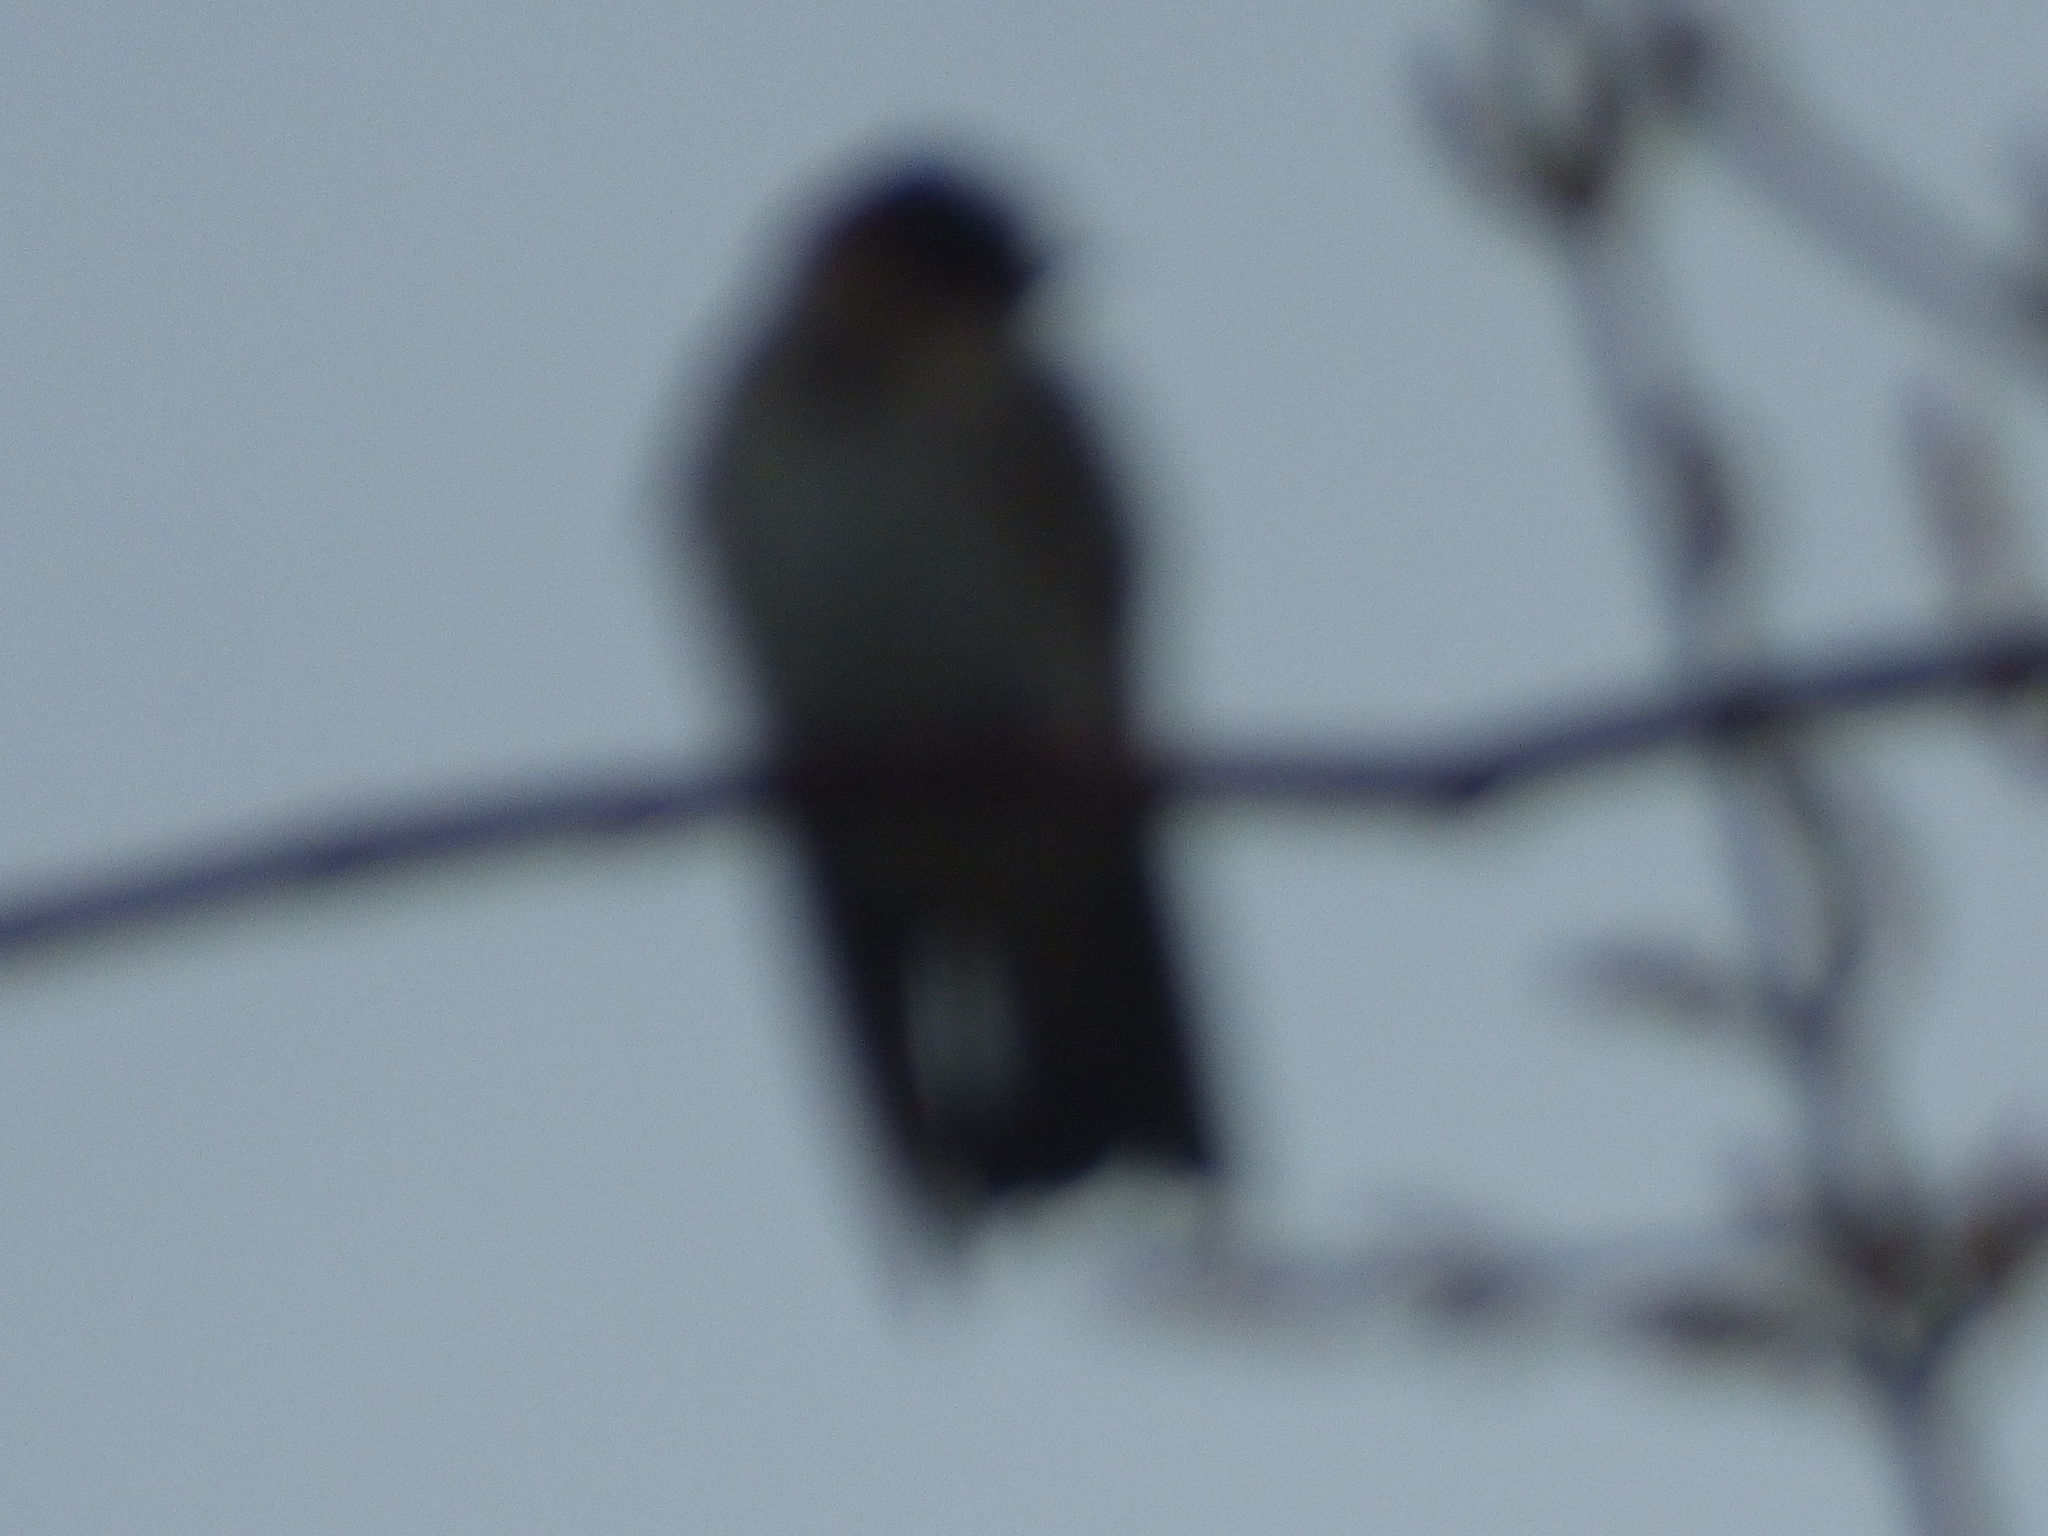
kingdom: Animalia
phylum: Chordata
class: Aves
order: Passeriformes
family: Hirundinidae
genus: Petrochelidon
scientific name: Petrochelidon pyrrhonota
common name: American cliff swallow
